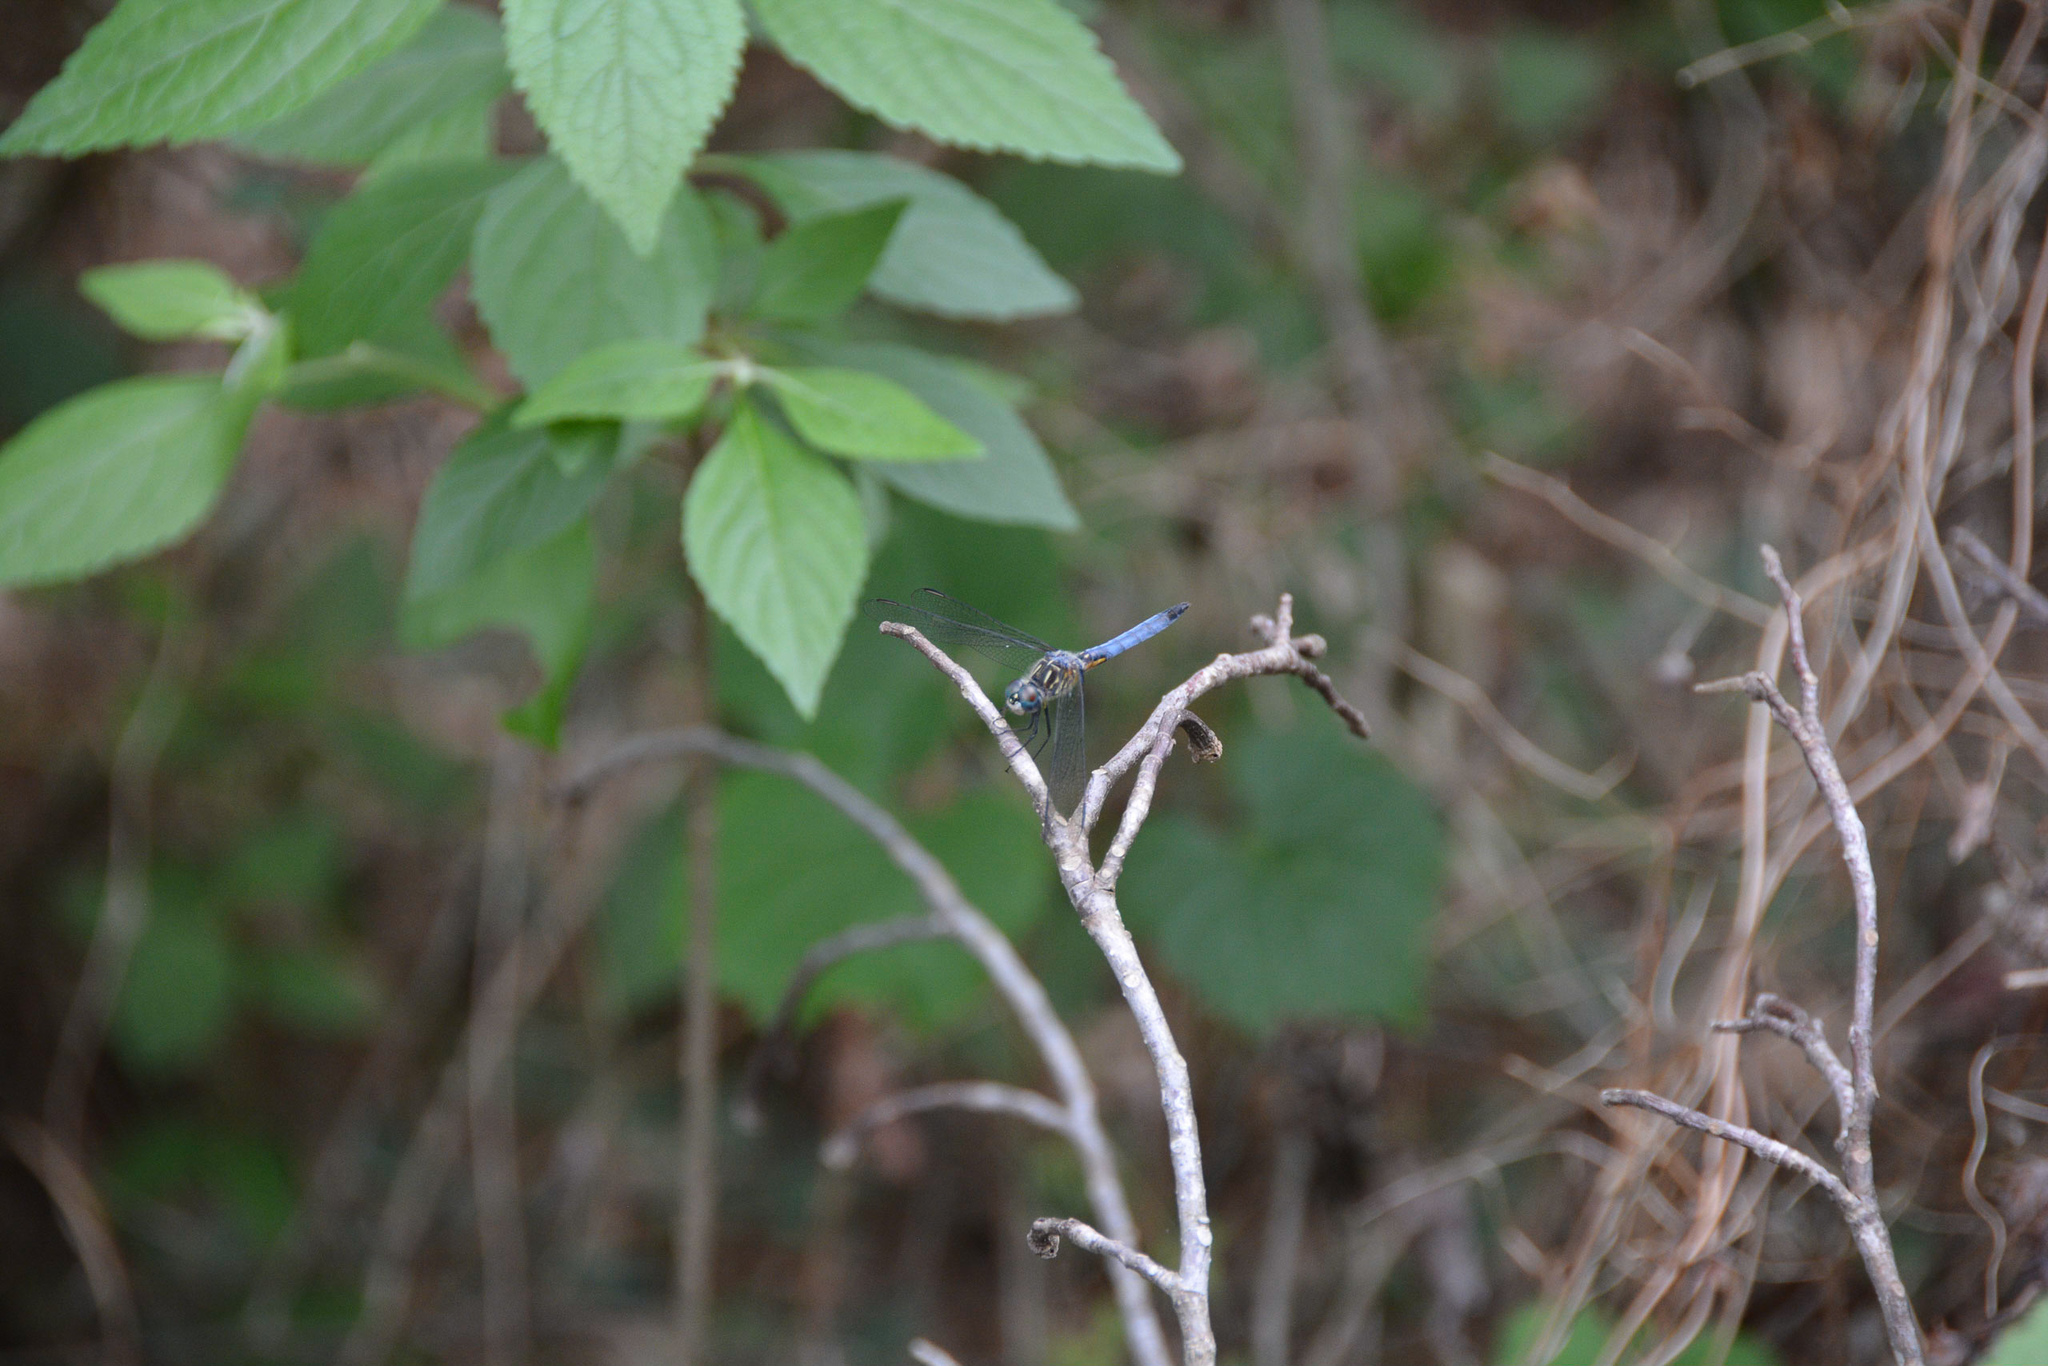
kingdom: Animalia
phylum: Arthropoda
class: Insecta
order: Odonata
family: Libellulidae
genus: Pachydiplax
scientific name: Pachydiplax longipennis
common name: Blue dasher
